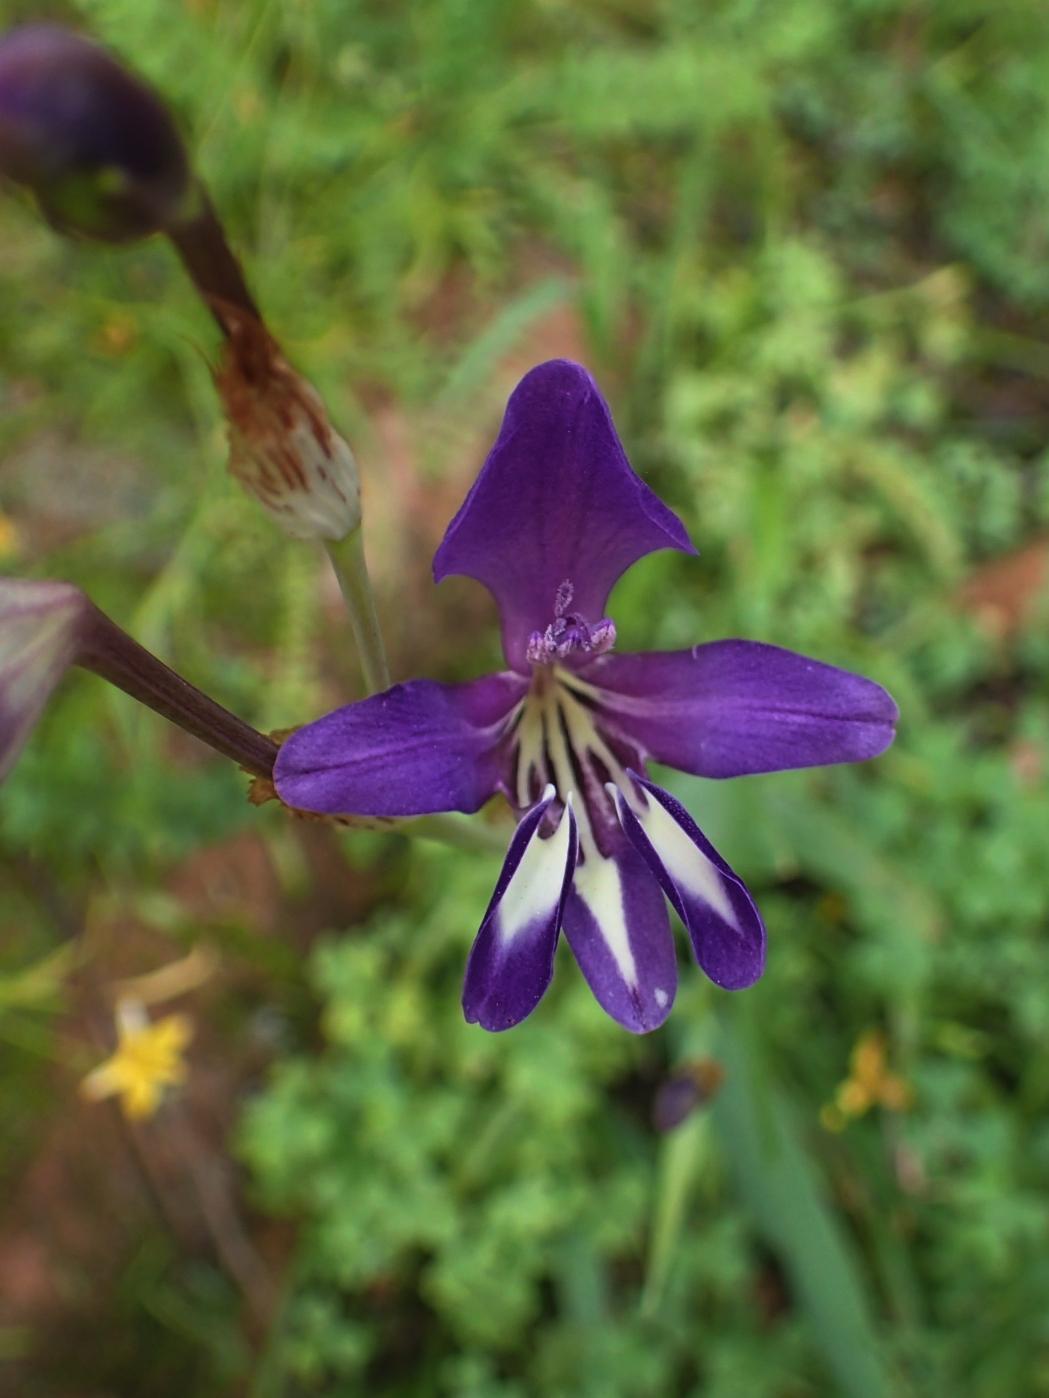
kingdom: Plantae
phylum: Tracheophyta
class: Liliopsida
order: Asparagales
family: Iridaceae
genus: Sparaxis
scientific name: Sparaxis metelerkampiae
